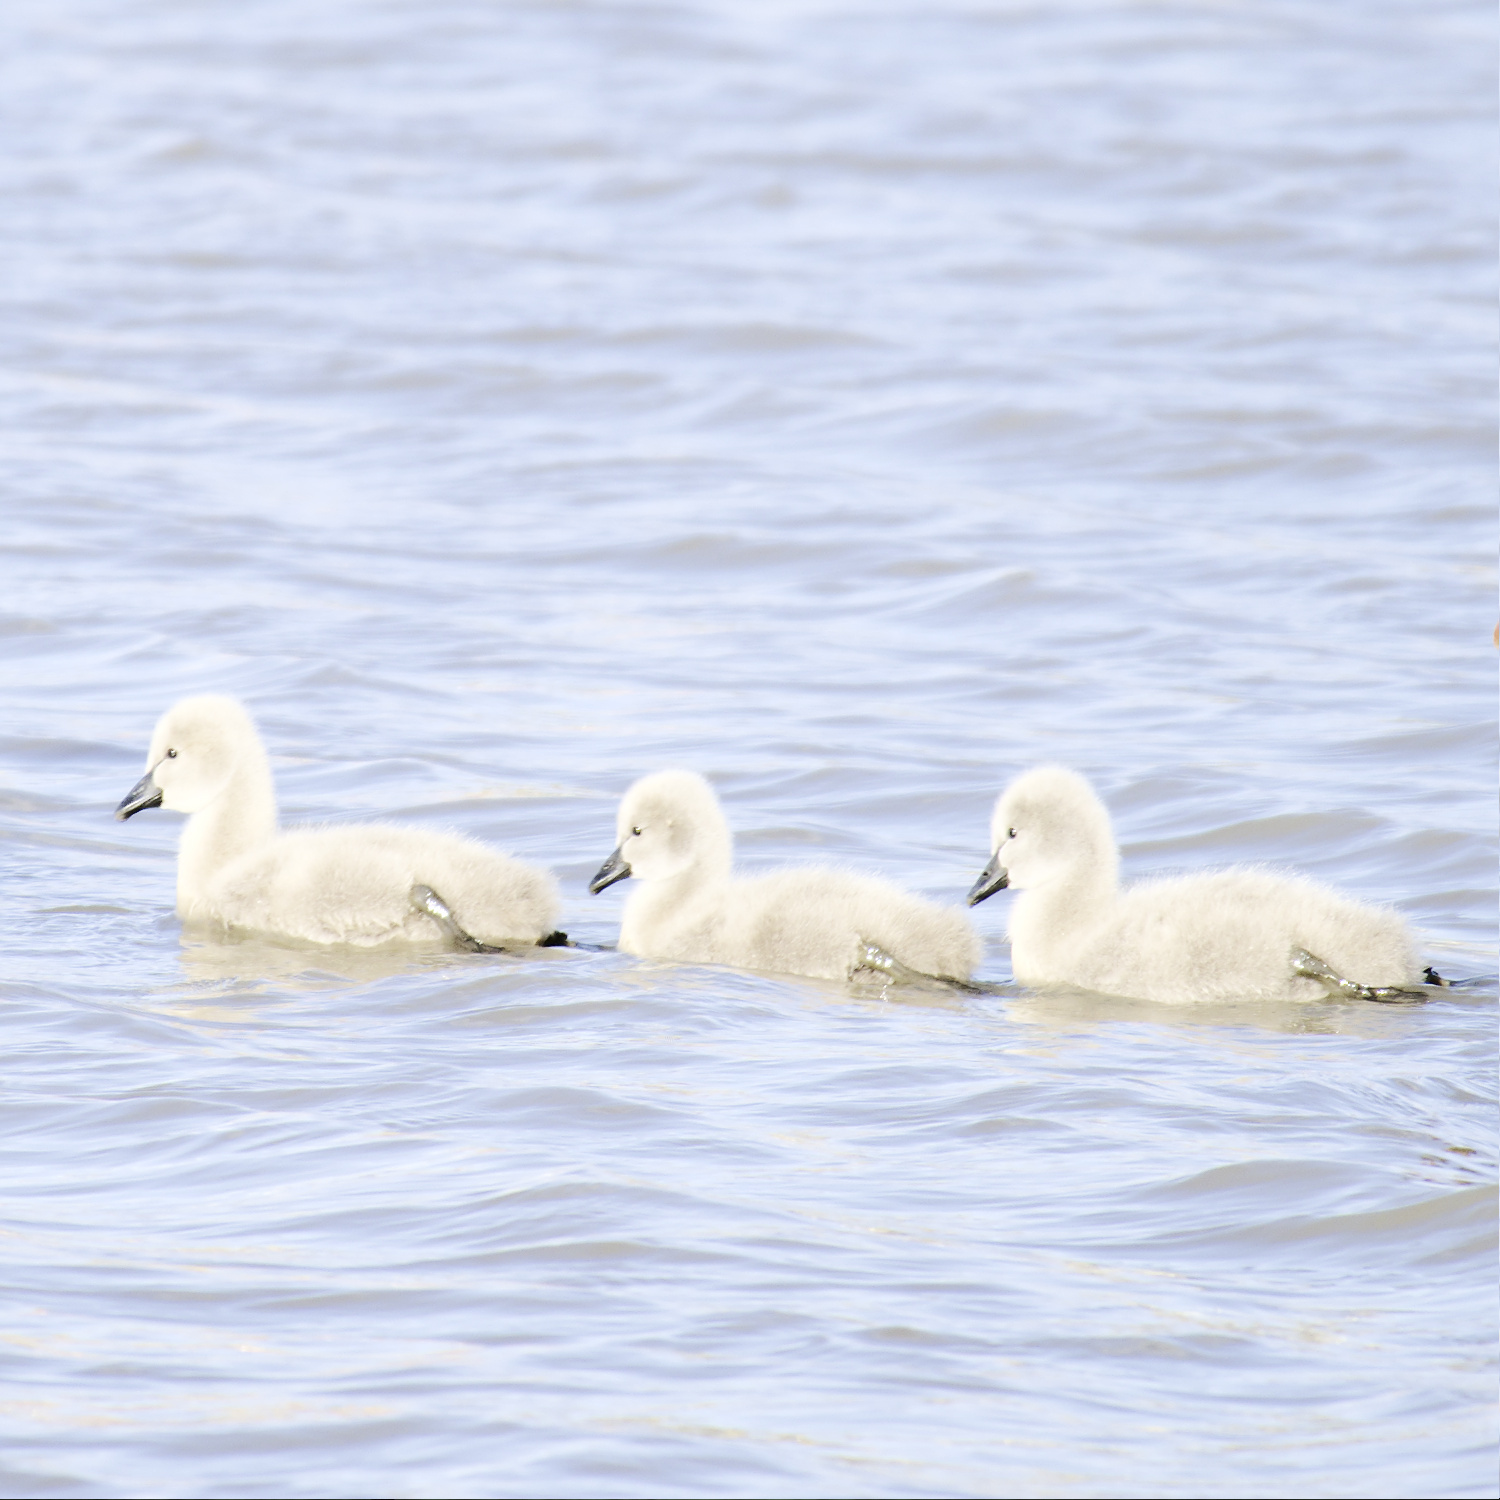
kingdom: Animalia
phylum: Chordata
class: Aves
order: Anseriformes
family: Anatidae
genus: Cygnus
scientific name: Cygnus atratus
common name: Black swan
